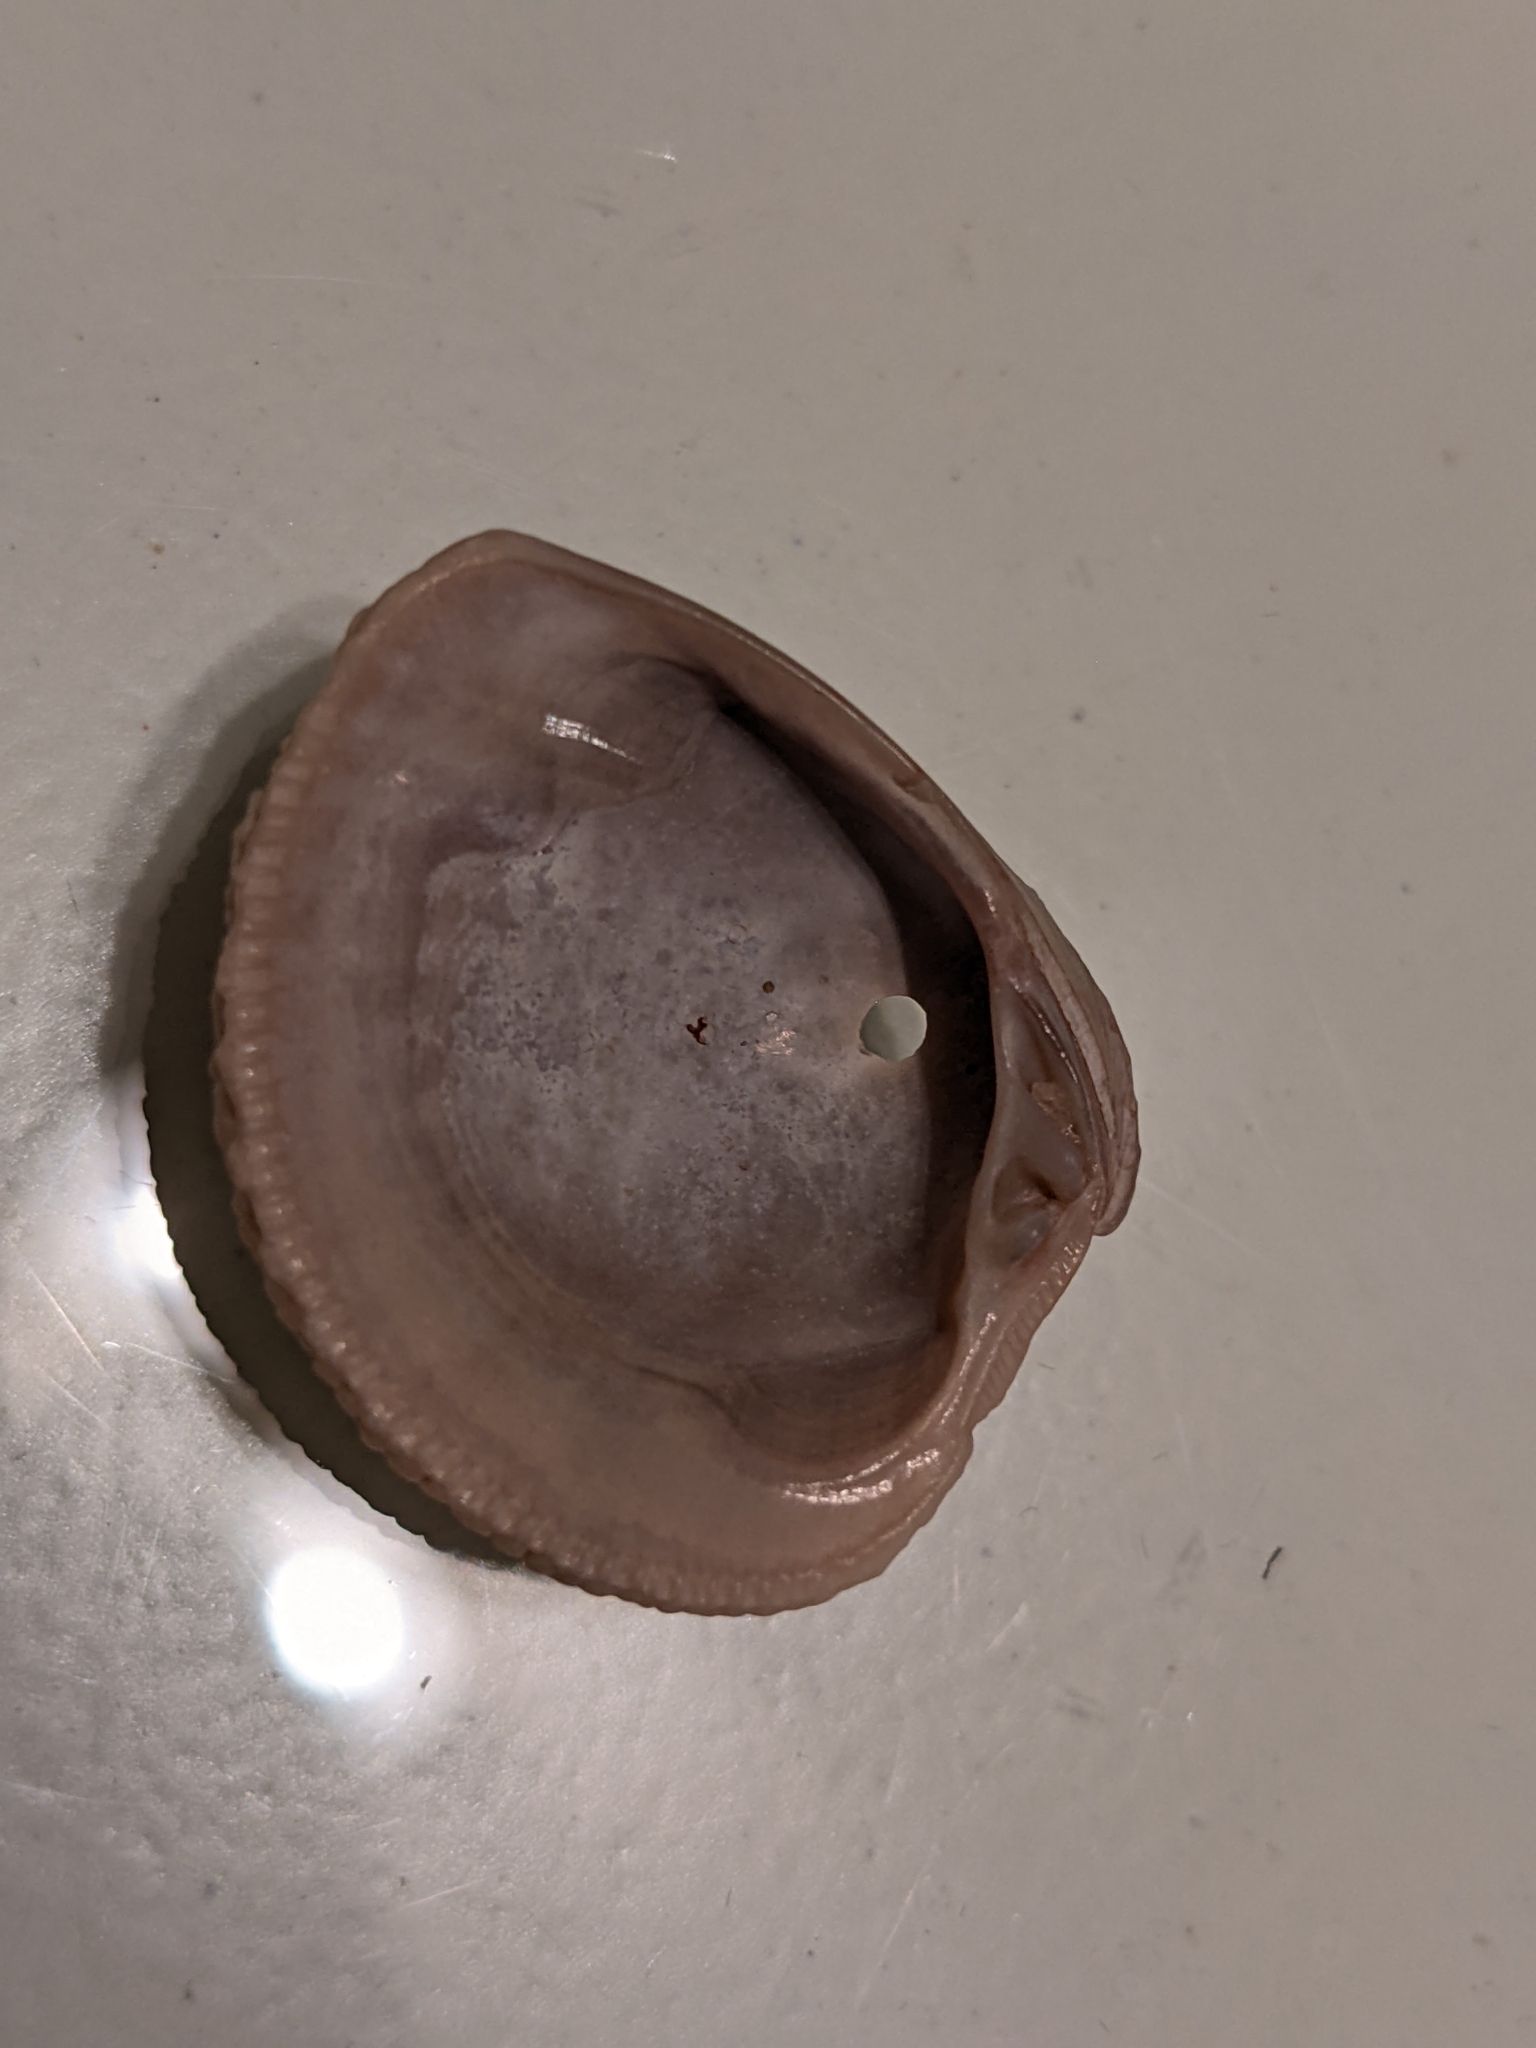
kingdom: Animalia
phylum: Mollusca
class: Bivalvia
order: Venerida
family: Veneridae
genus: Chione
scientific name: Chione elevata
